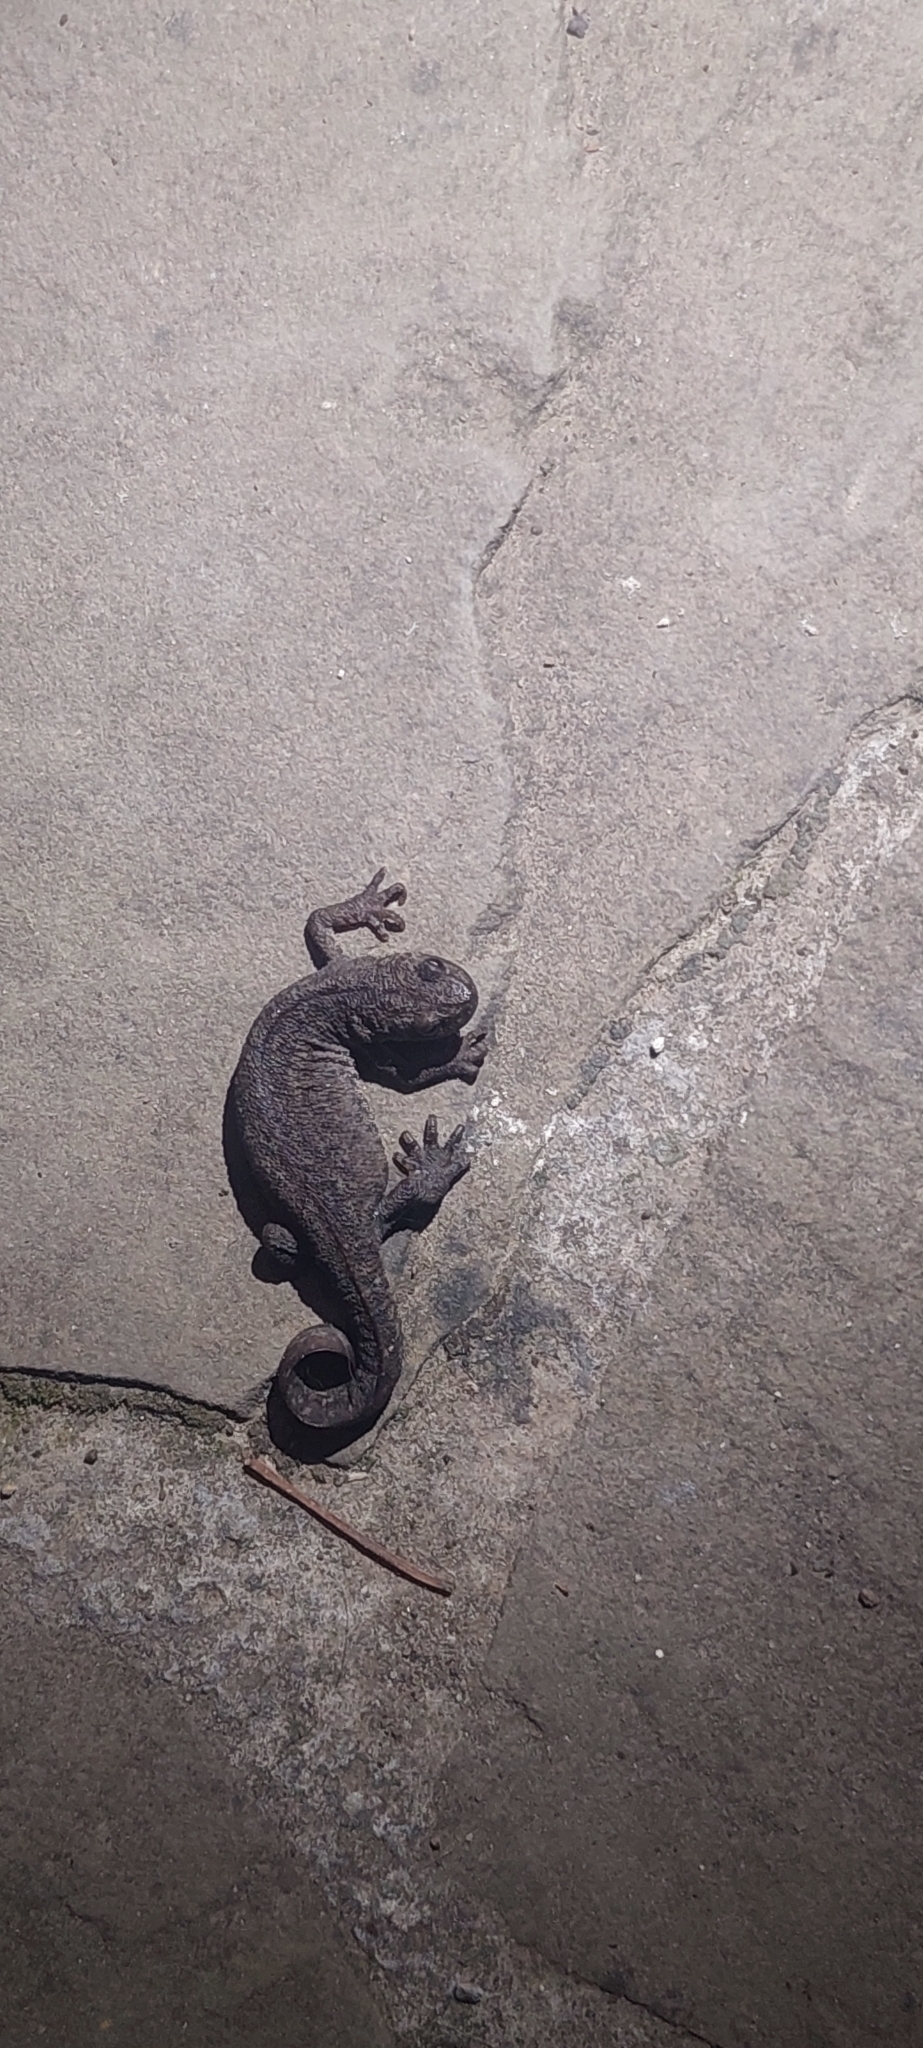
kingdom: Animalia
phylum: Chordata
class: Amphibia
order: Caudata
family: Salamandridae
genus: Triturus
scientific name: Triturus karelinii
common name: Southern crested newt
